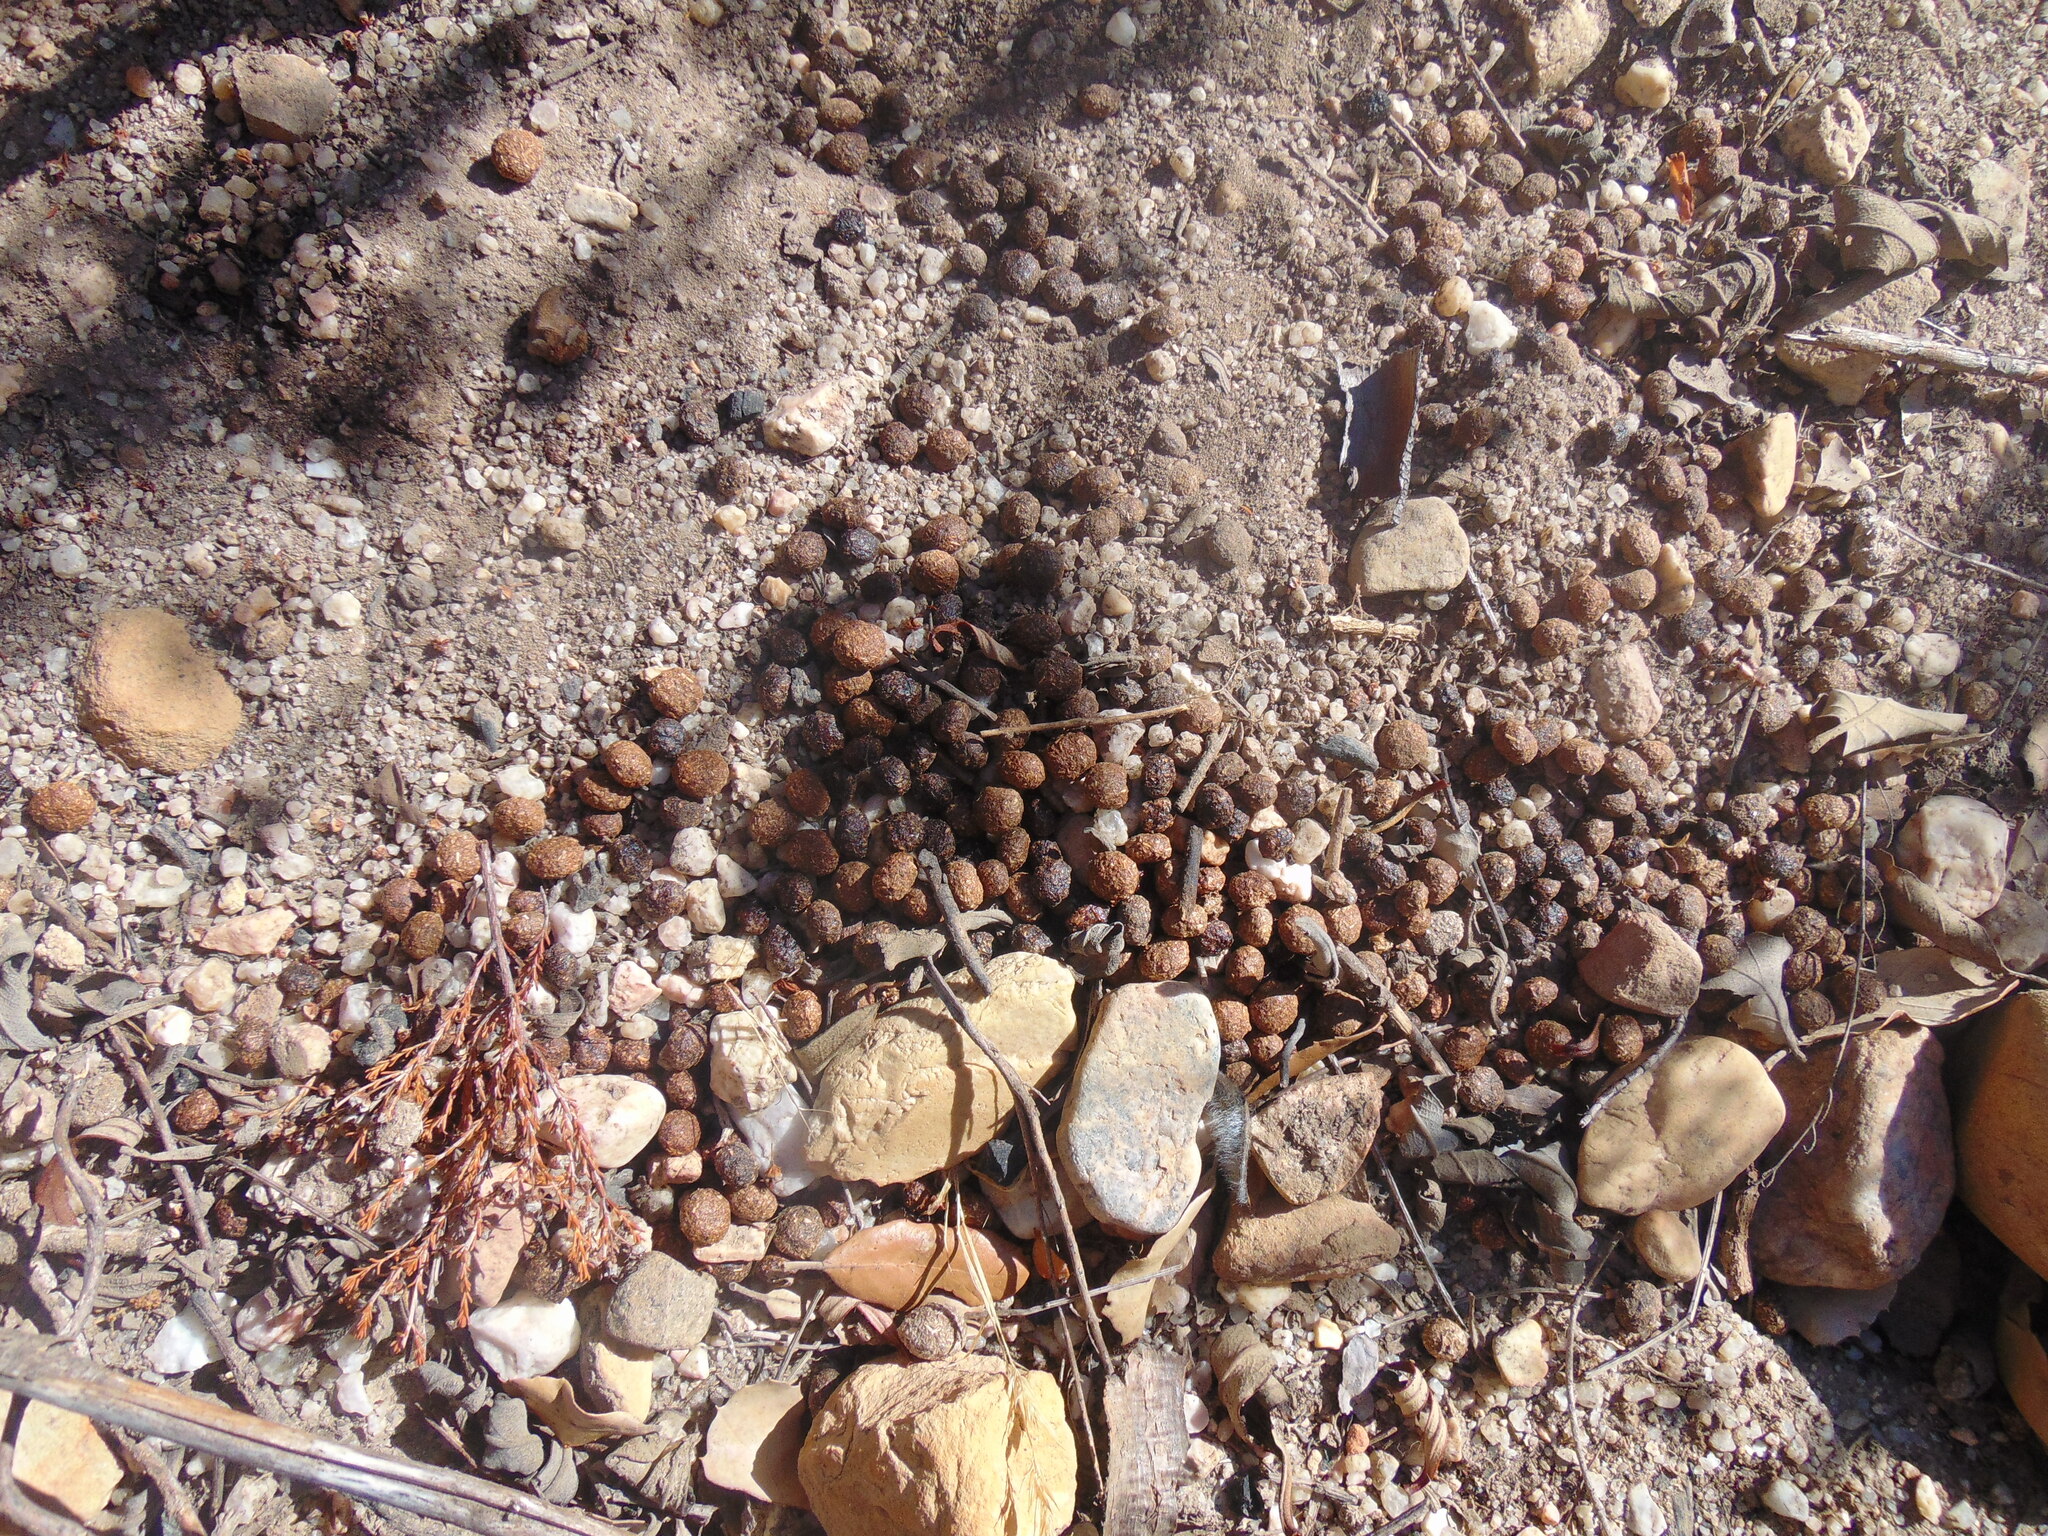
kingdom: Animalia
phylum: Chordata
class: Mammalia
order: Lagomorpha
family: Leporidae
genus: Oryctolagus
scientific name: Oryctolagus cuniculus
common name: European rabbit
